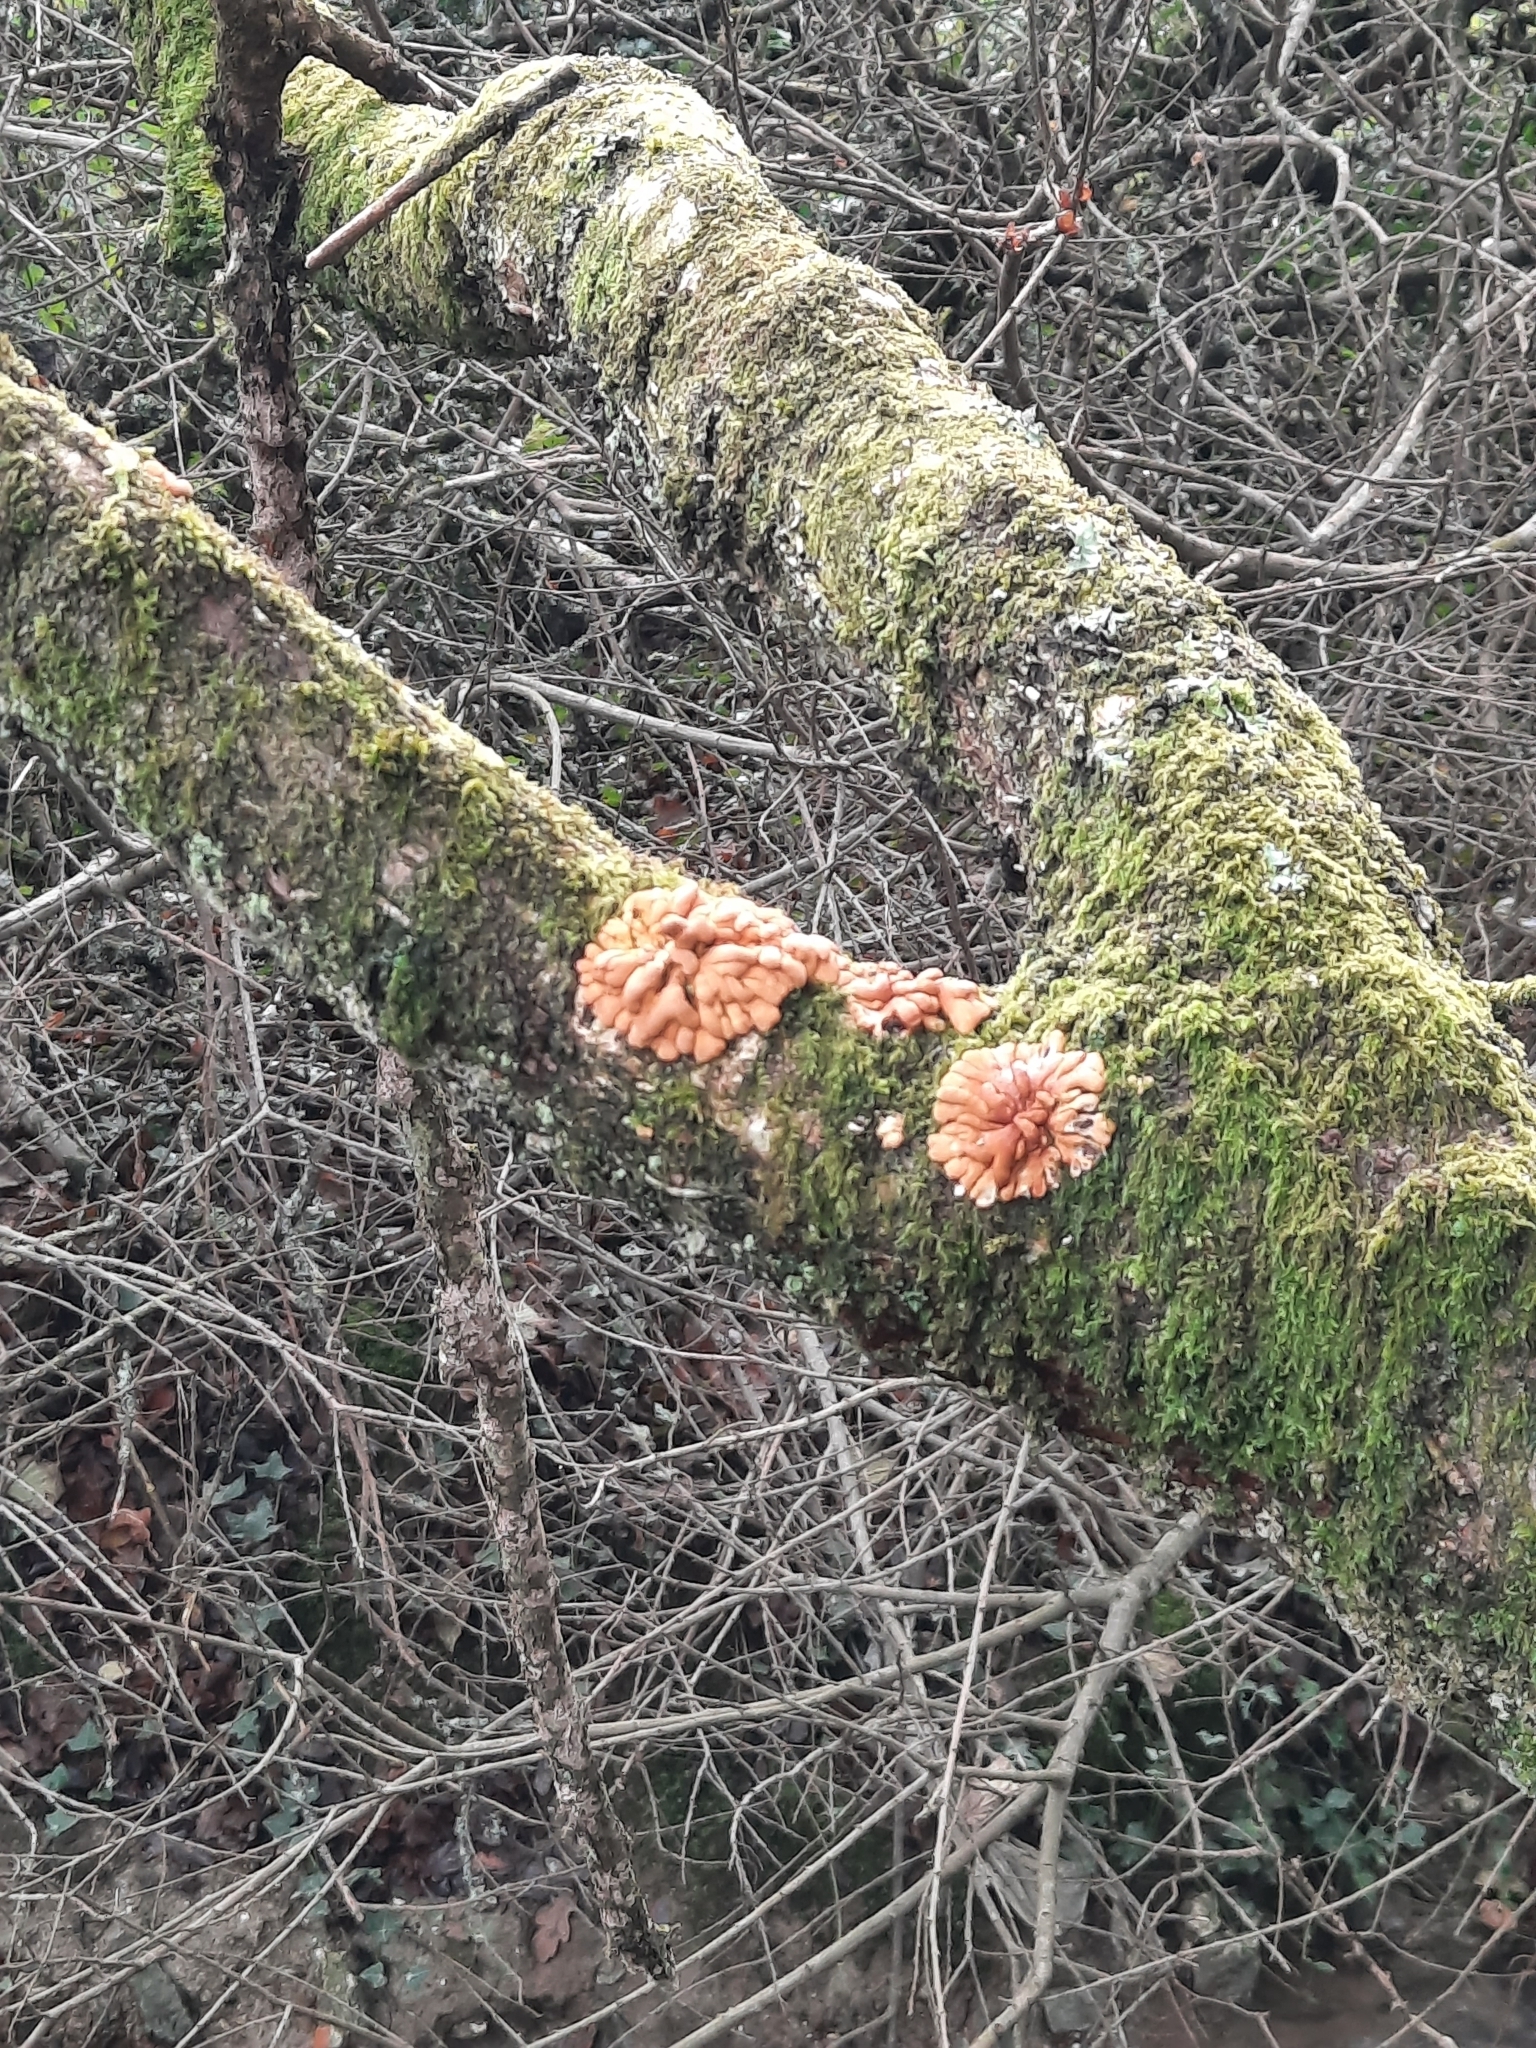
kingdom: Fungi
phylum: Ascomycota
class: Sordariomycetes
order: Hypocreales
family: Hypocreaceae
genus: Hypocreopsis
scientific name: Hypocreopsis rhododendri
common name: Hazel gloves
